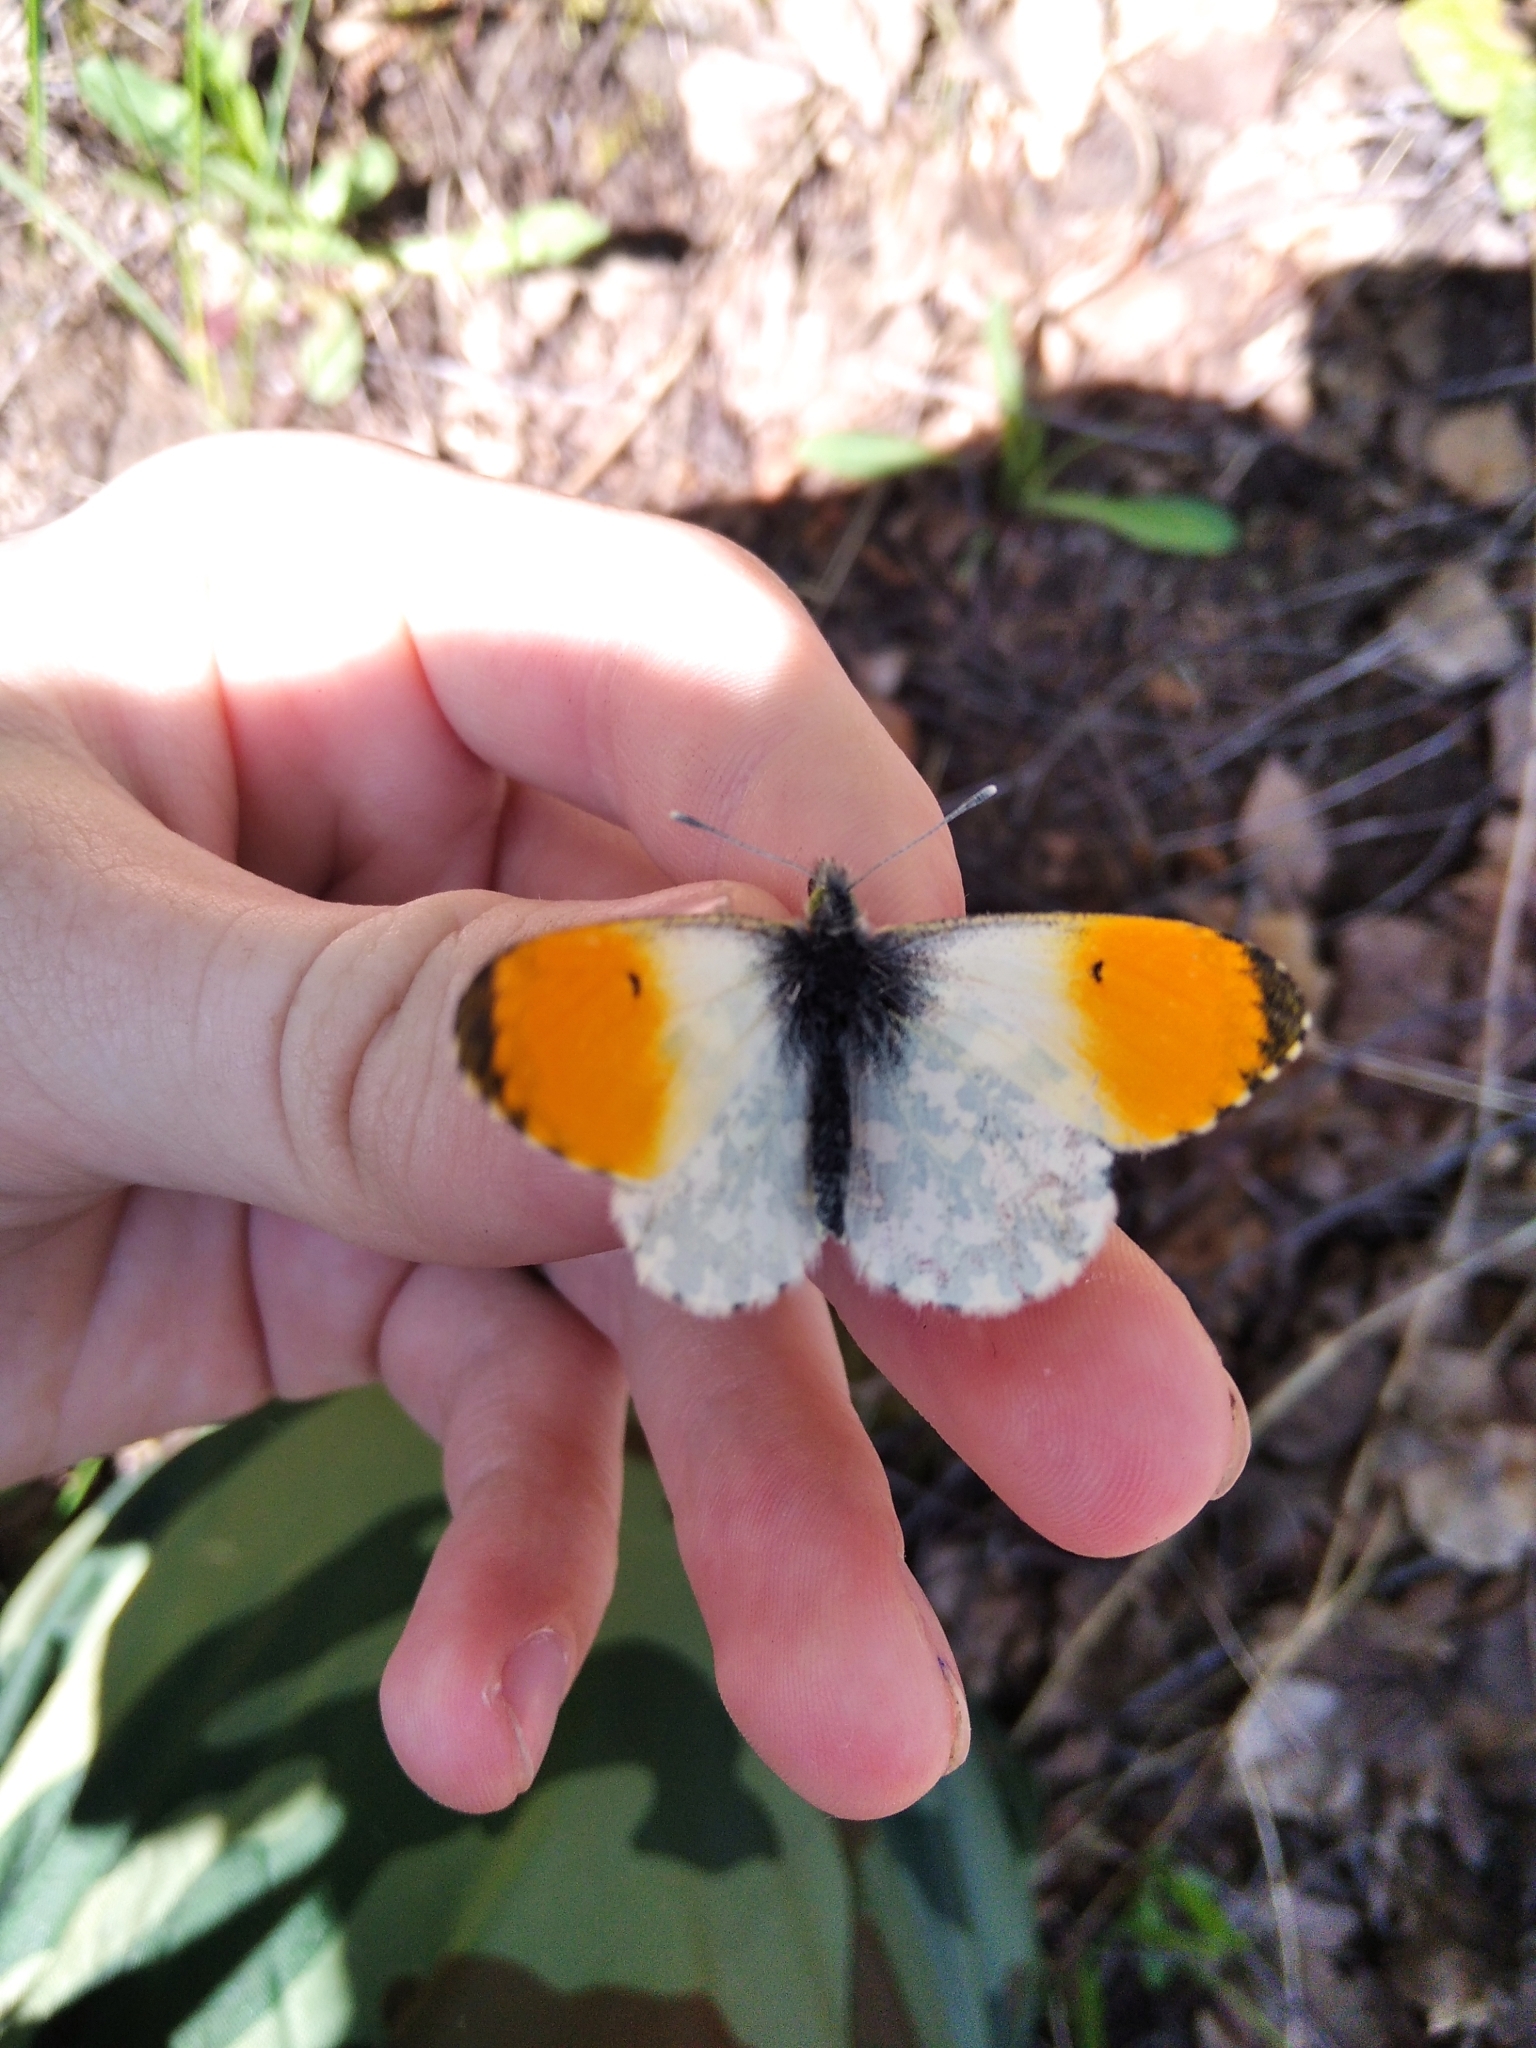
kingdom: Animalia
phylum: Arthropoda
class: Insecta
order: Lepidoptera
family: Pieridae
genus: Anthocharis
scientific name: Anthocharis cardamines
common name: Orange-tip
